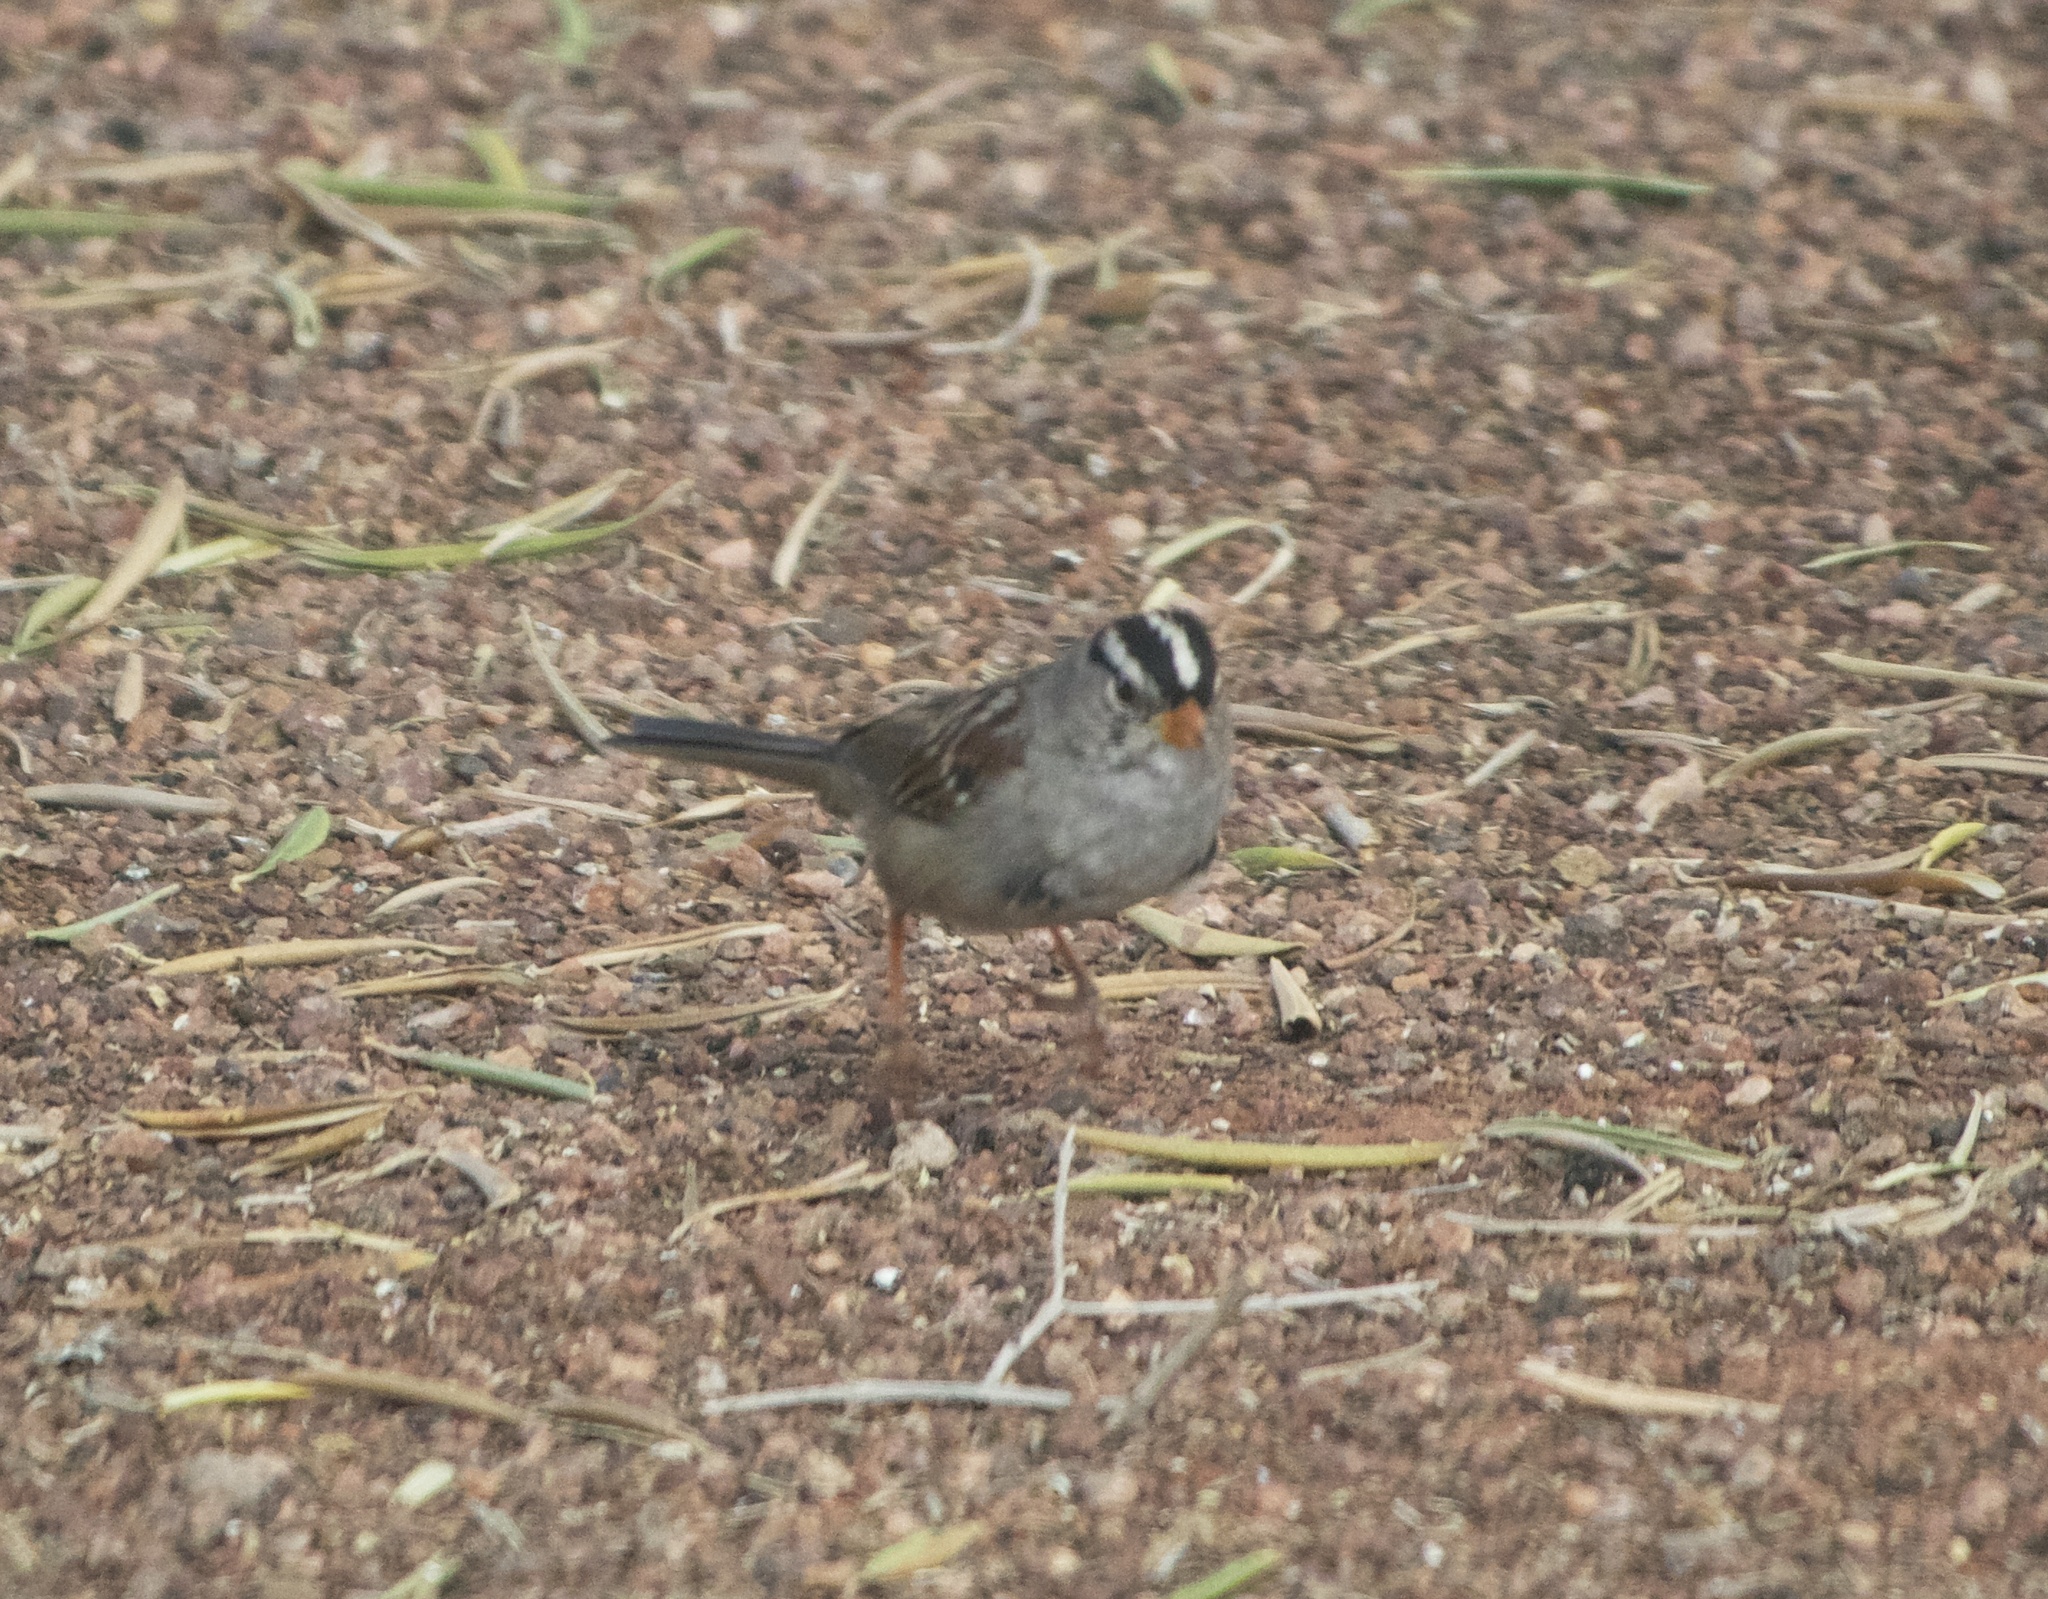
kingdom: Animalia
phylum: Chordata
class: Aves
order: Passeriformes
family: Passerellidae
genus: Zonotrichia
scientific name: Zonotrichia leucophrys
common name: White-crowned sparrow
